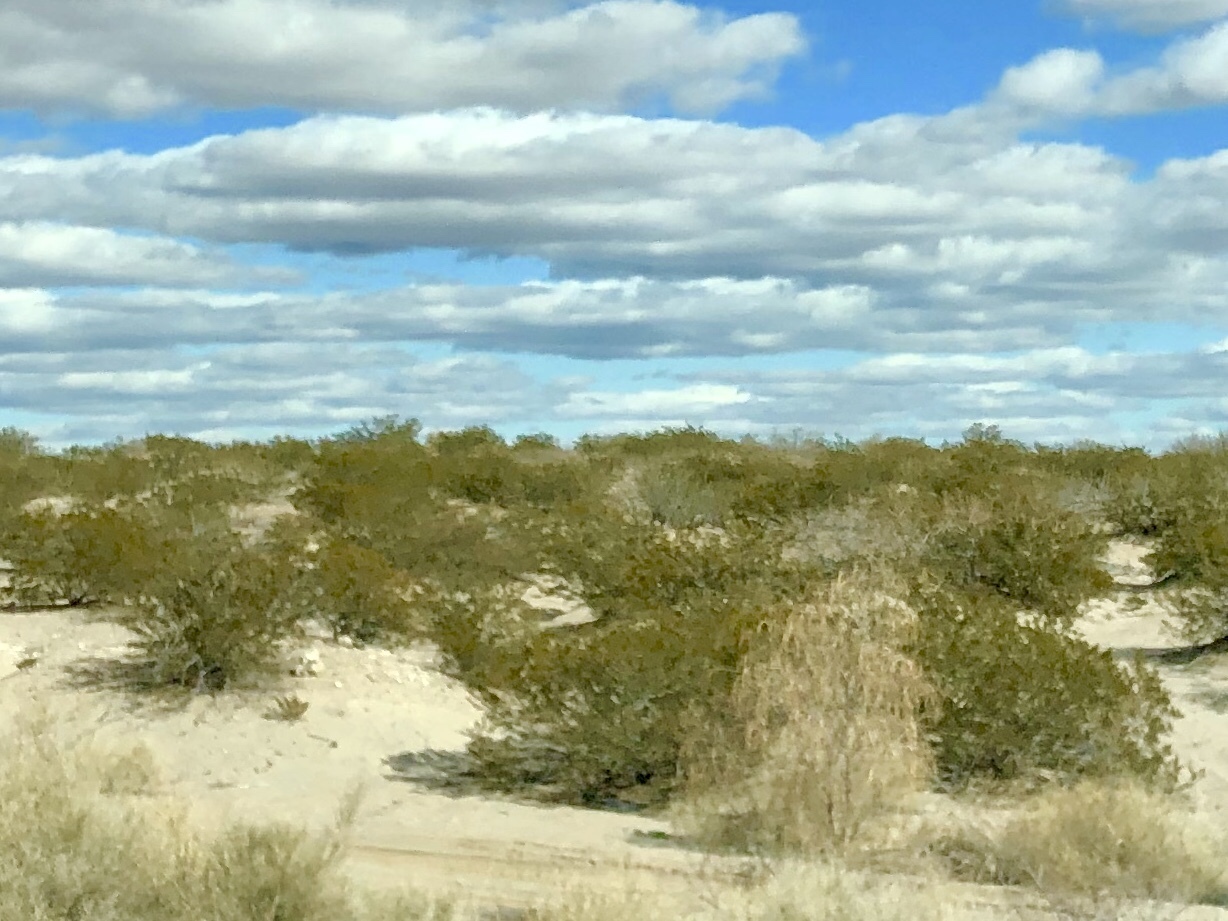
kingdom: Plantae
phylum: Tracheophyta
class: Magnoliopsida
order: Zygophyllales
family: Zygophyllaceae
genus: Larrea
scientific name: Larrea tridentata
